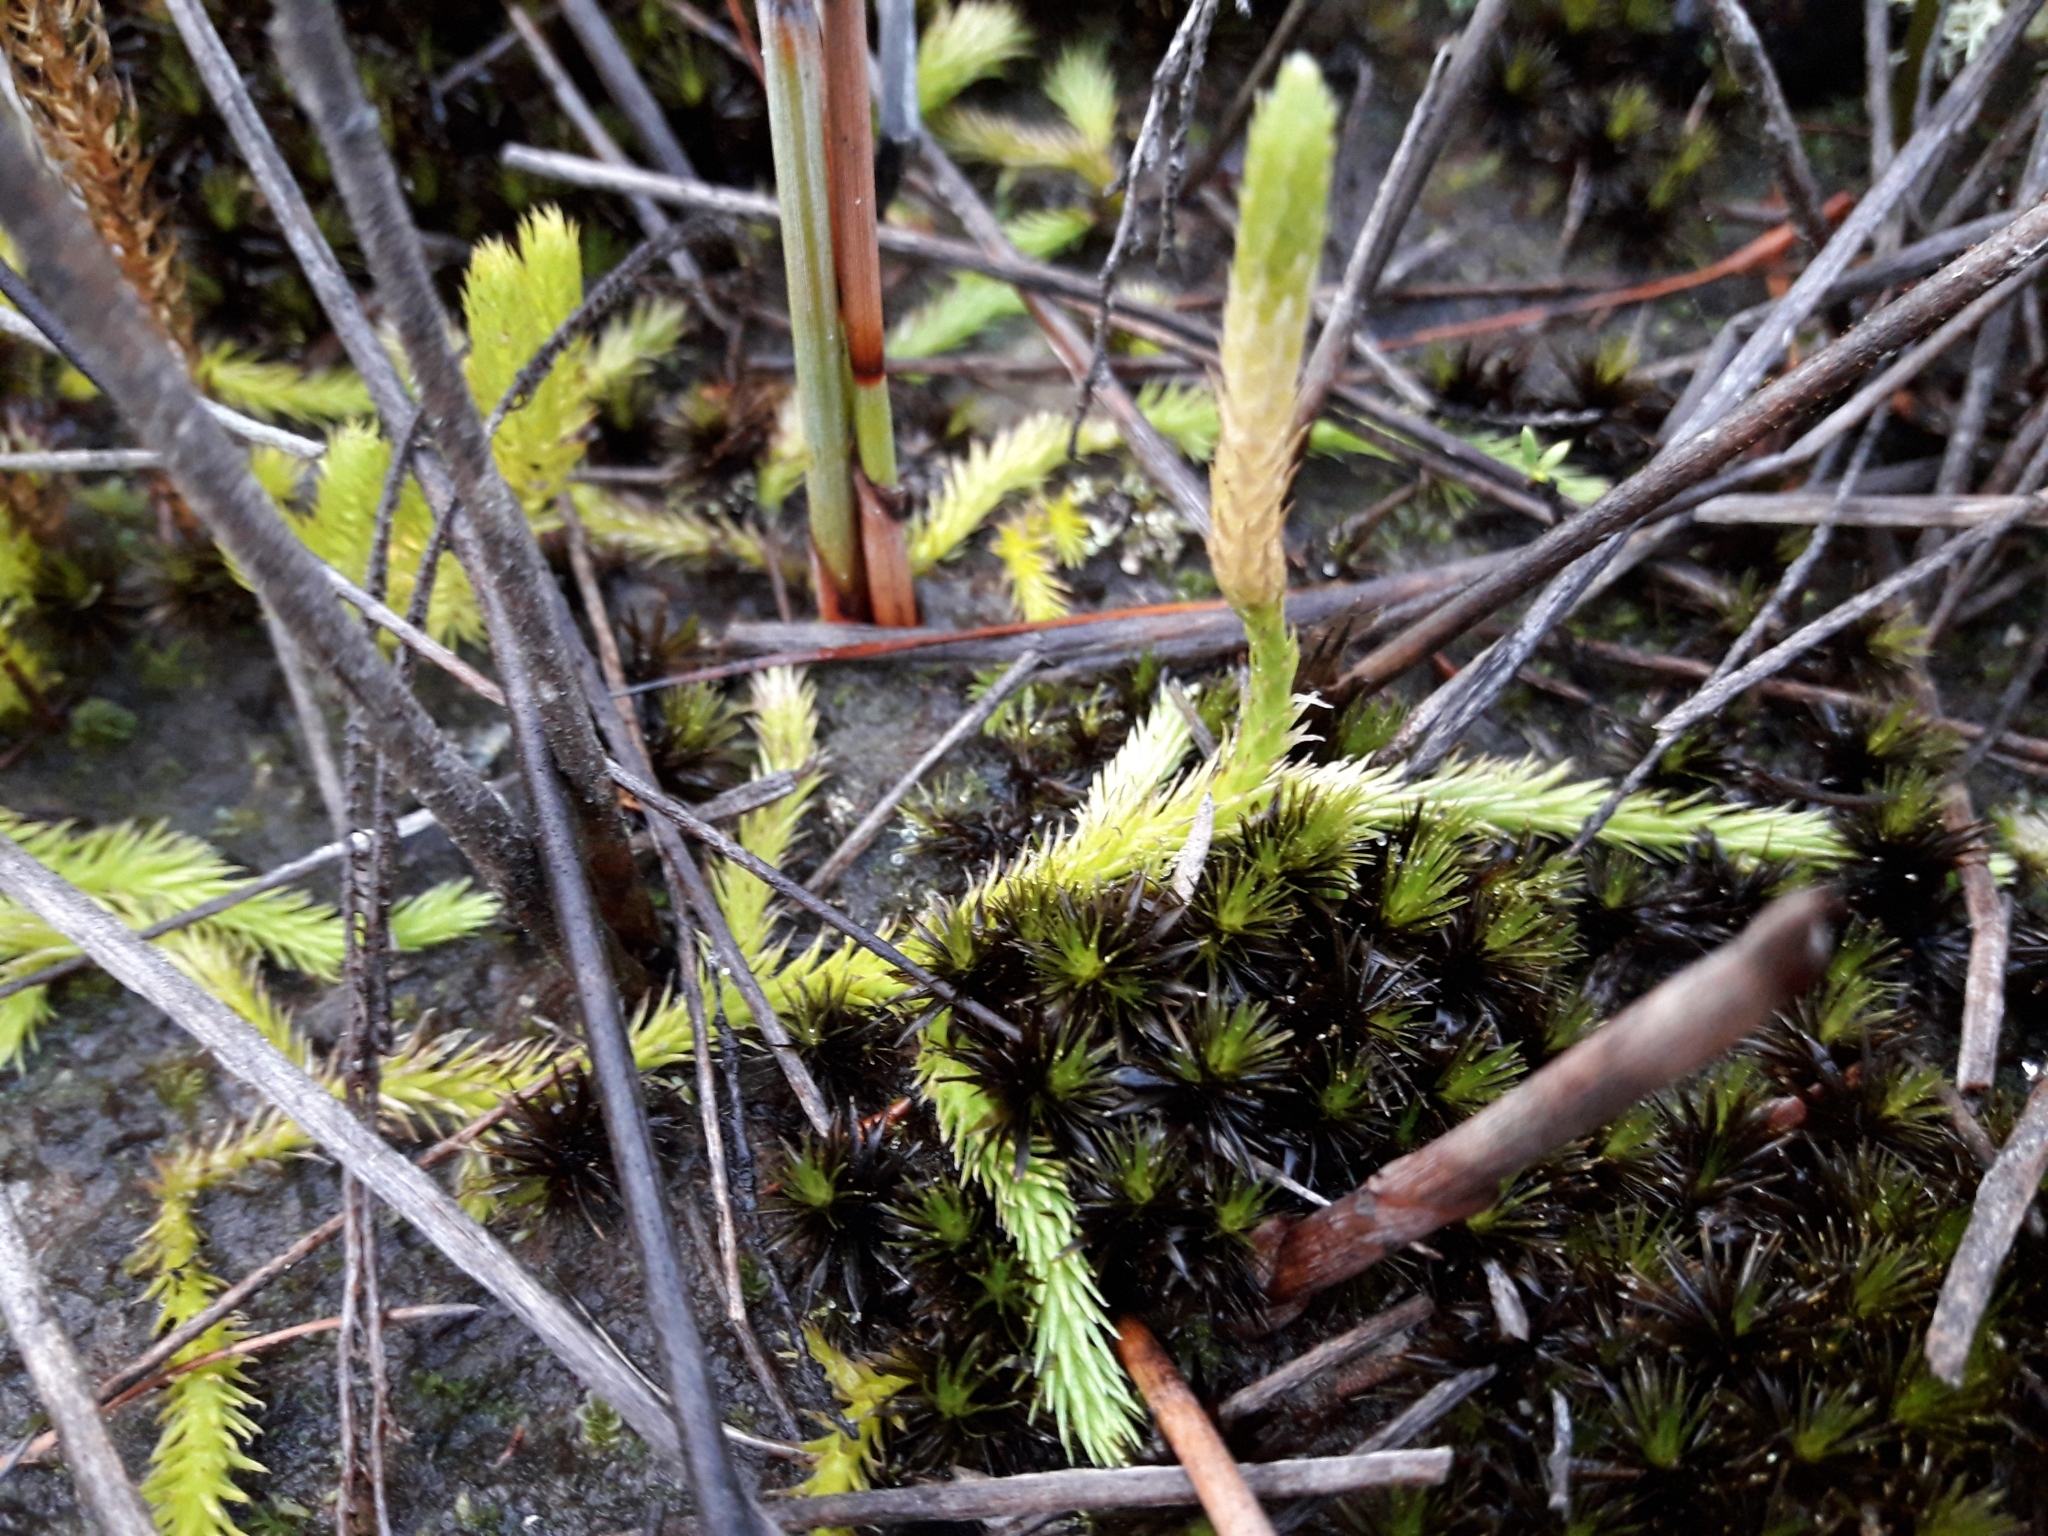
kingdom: Plantae
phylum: Tracheophyta
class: Lycopodiopsida
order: Lycopodiales
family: Lycopodiaceae
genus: Brownseya
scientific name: Brownseya serpentina
